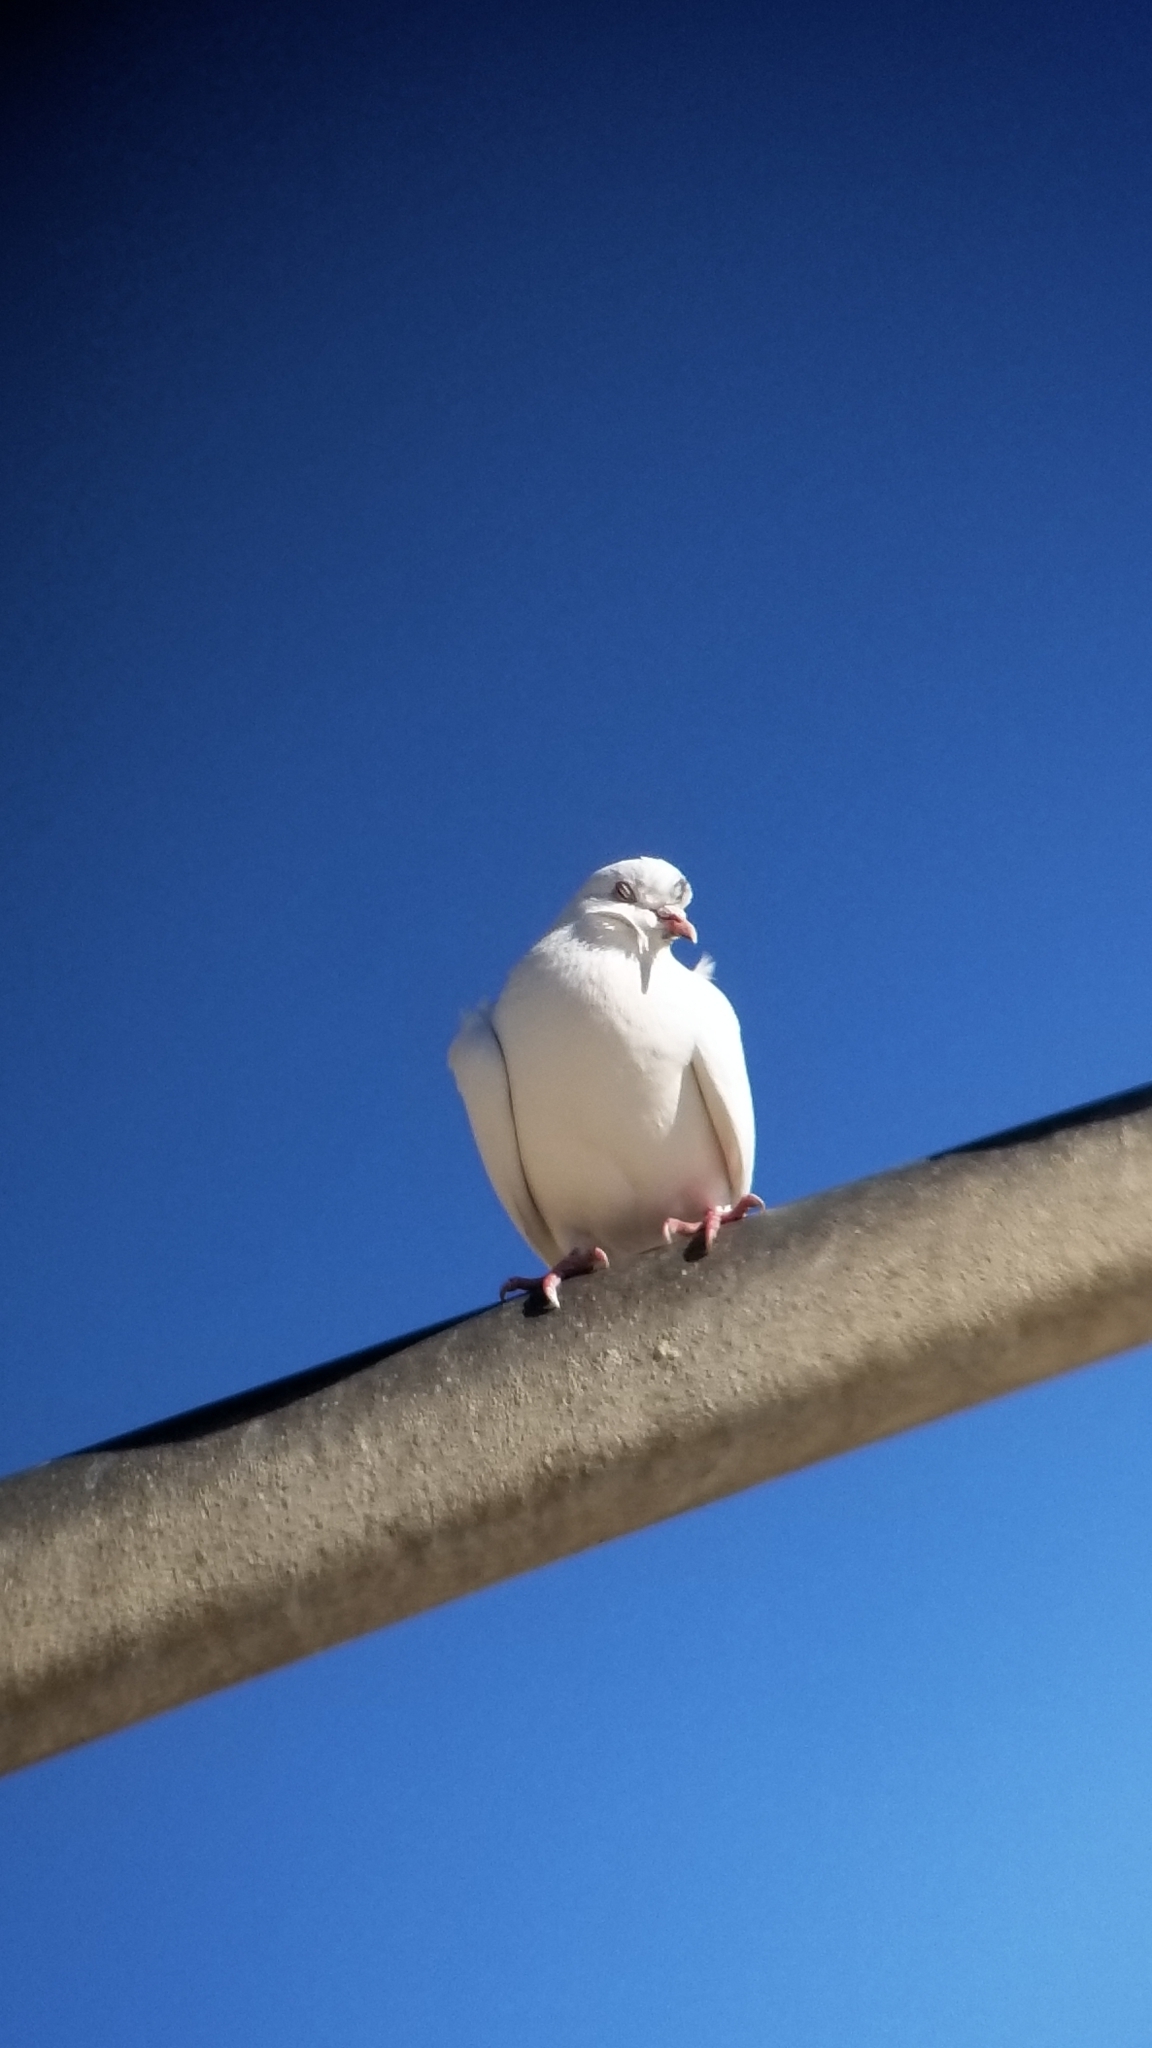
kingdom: Animalia
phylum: Chordata
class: Aves
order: Columbiformes
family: Columbidae
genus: Columba
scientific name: Columba livia
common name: Rock pigeon
